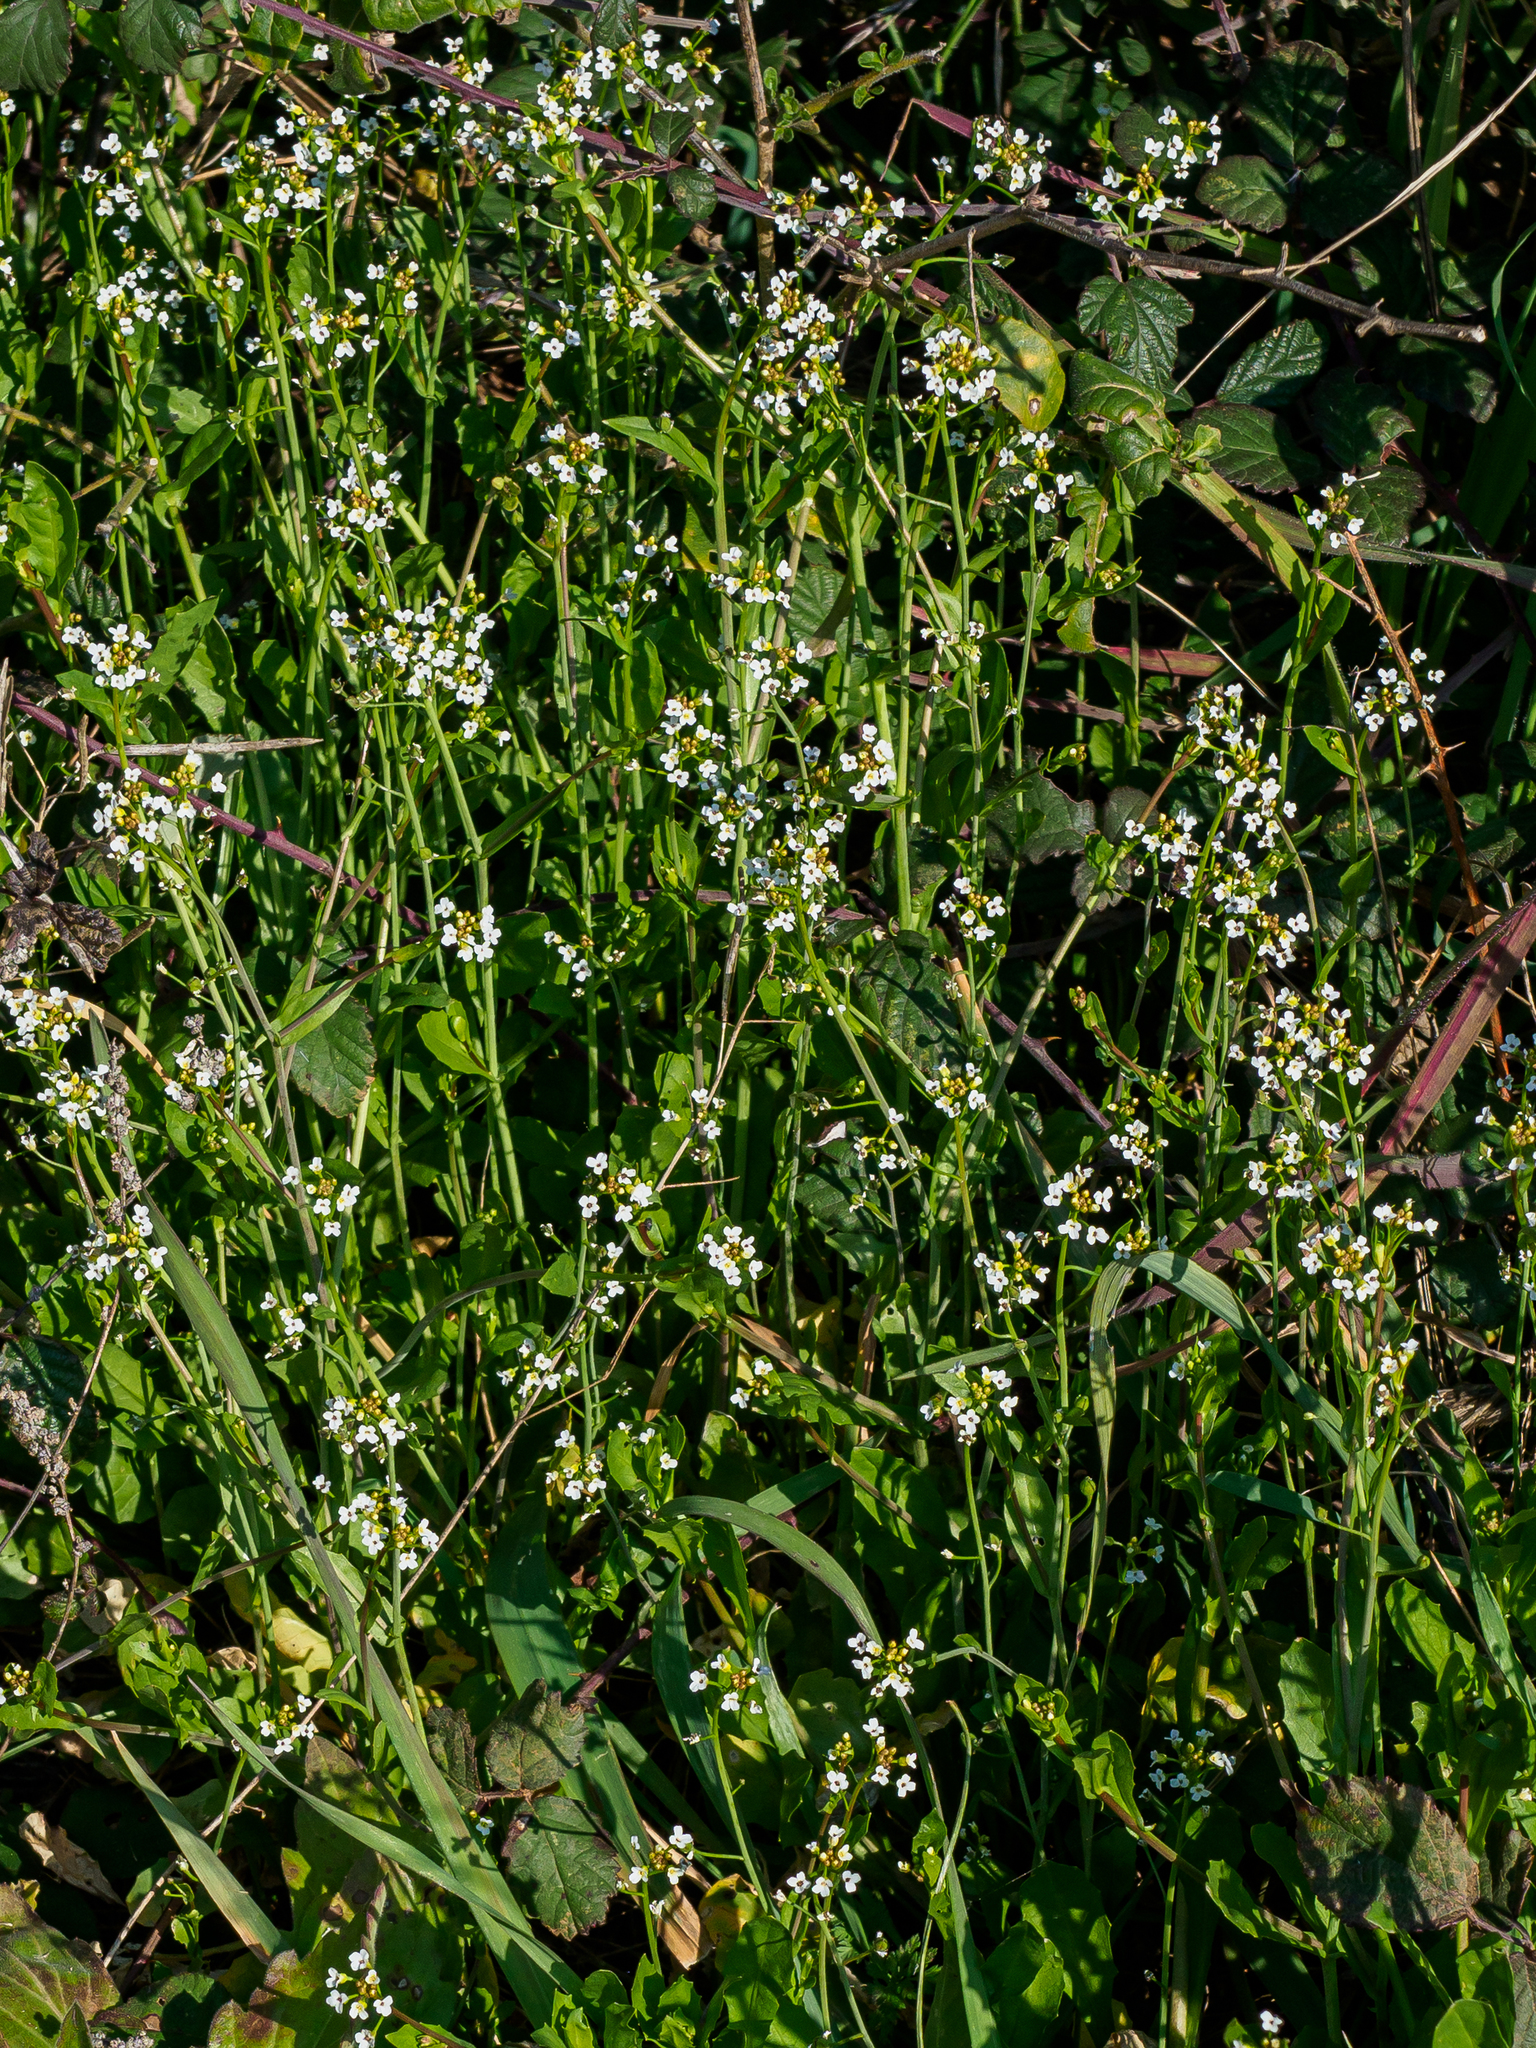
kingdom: Plantae
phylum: Tracheophyta
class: Magnoliopsida
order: Brassicales
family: Brassicaceae
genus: Calepina
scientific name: Calepina irregularis
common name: White ballmustard
